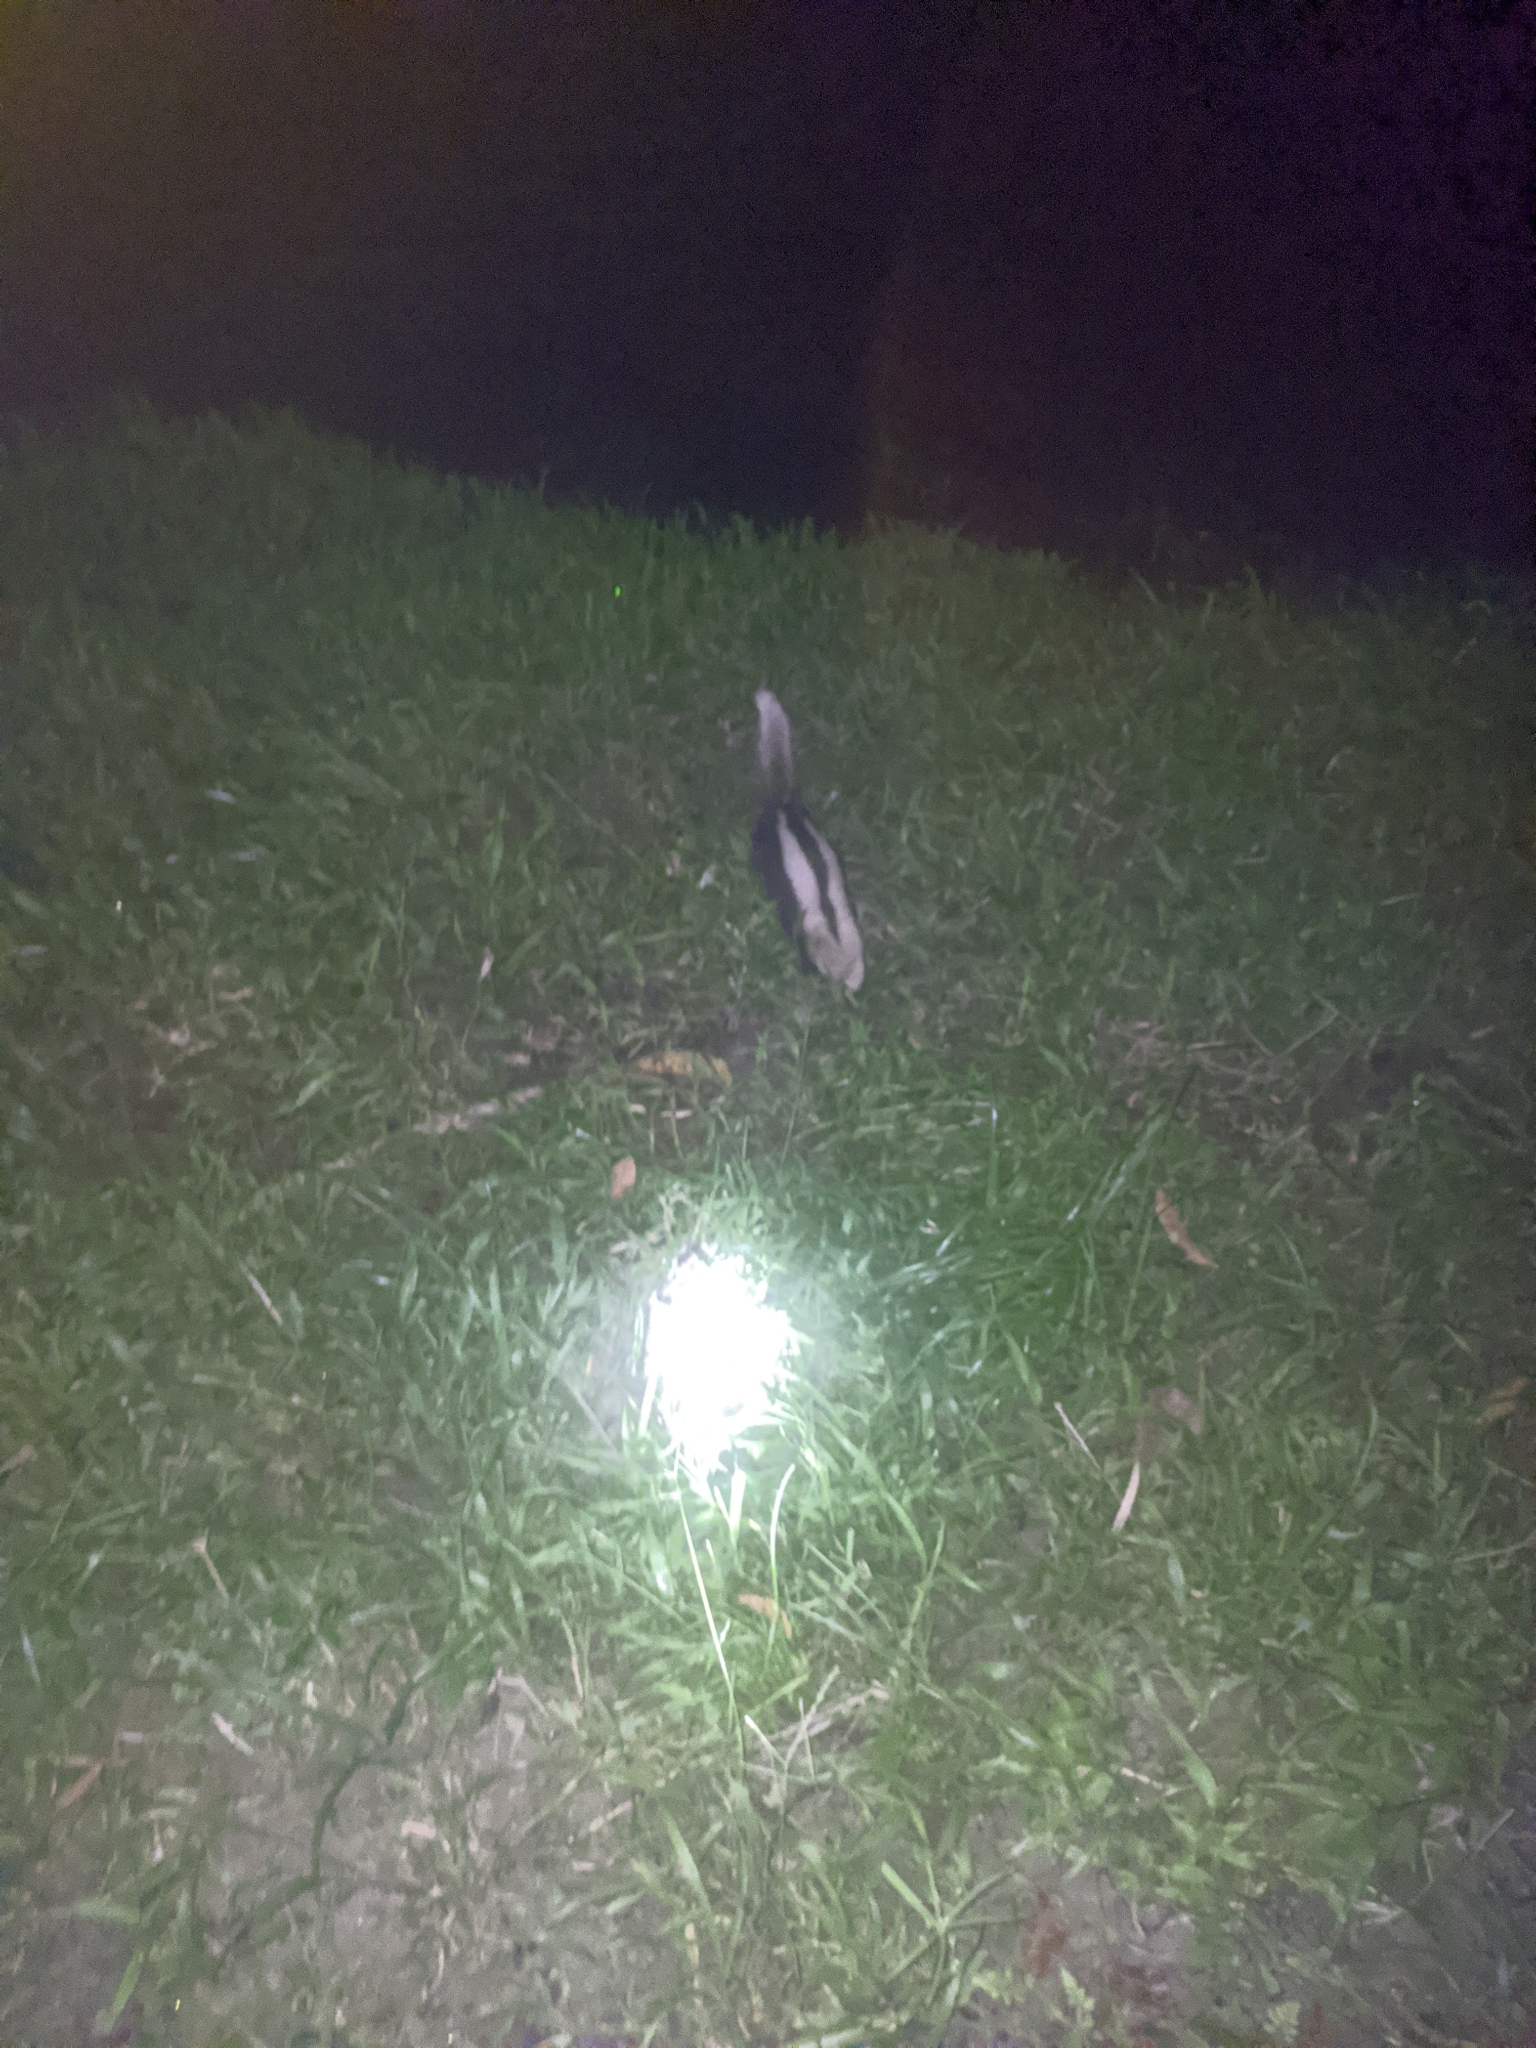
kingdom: Animalia
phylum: Chordata
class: Mammalia
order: Carnivora
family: Mephitidae
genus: Conepatus
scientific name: Conepatus semistriatus
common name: Striped hog-nosed skunk
